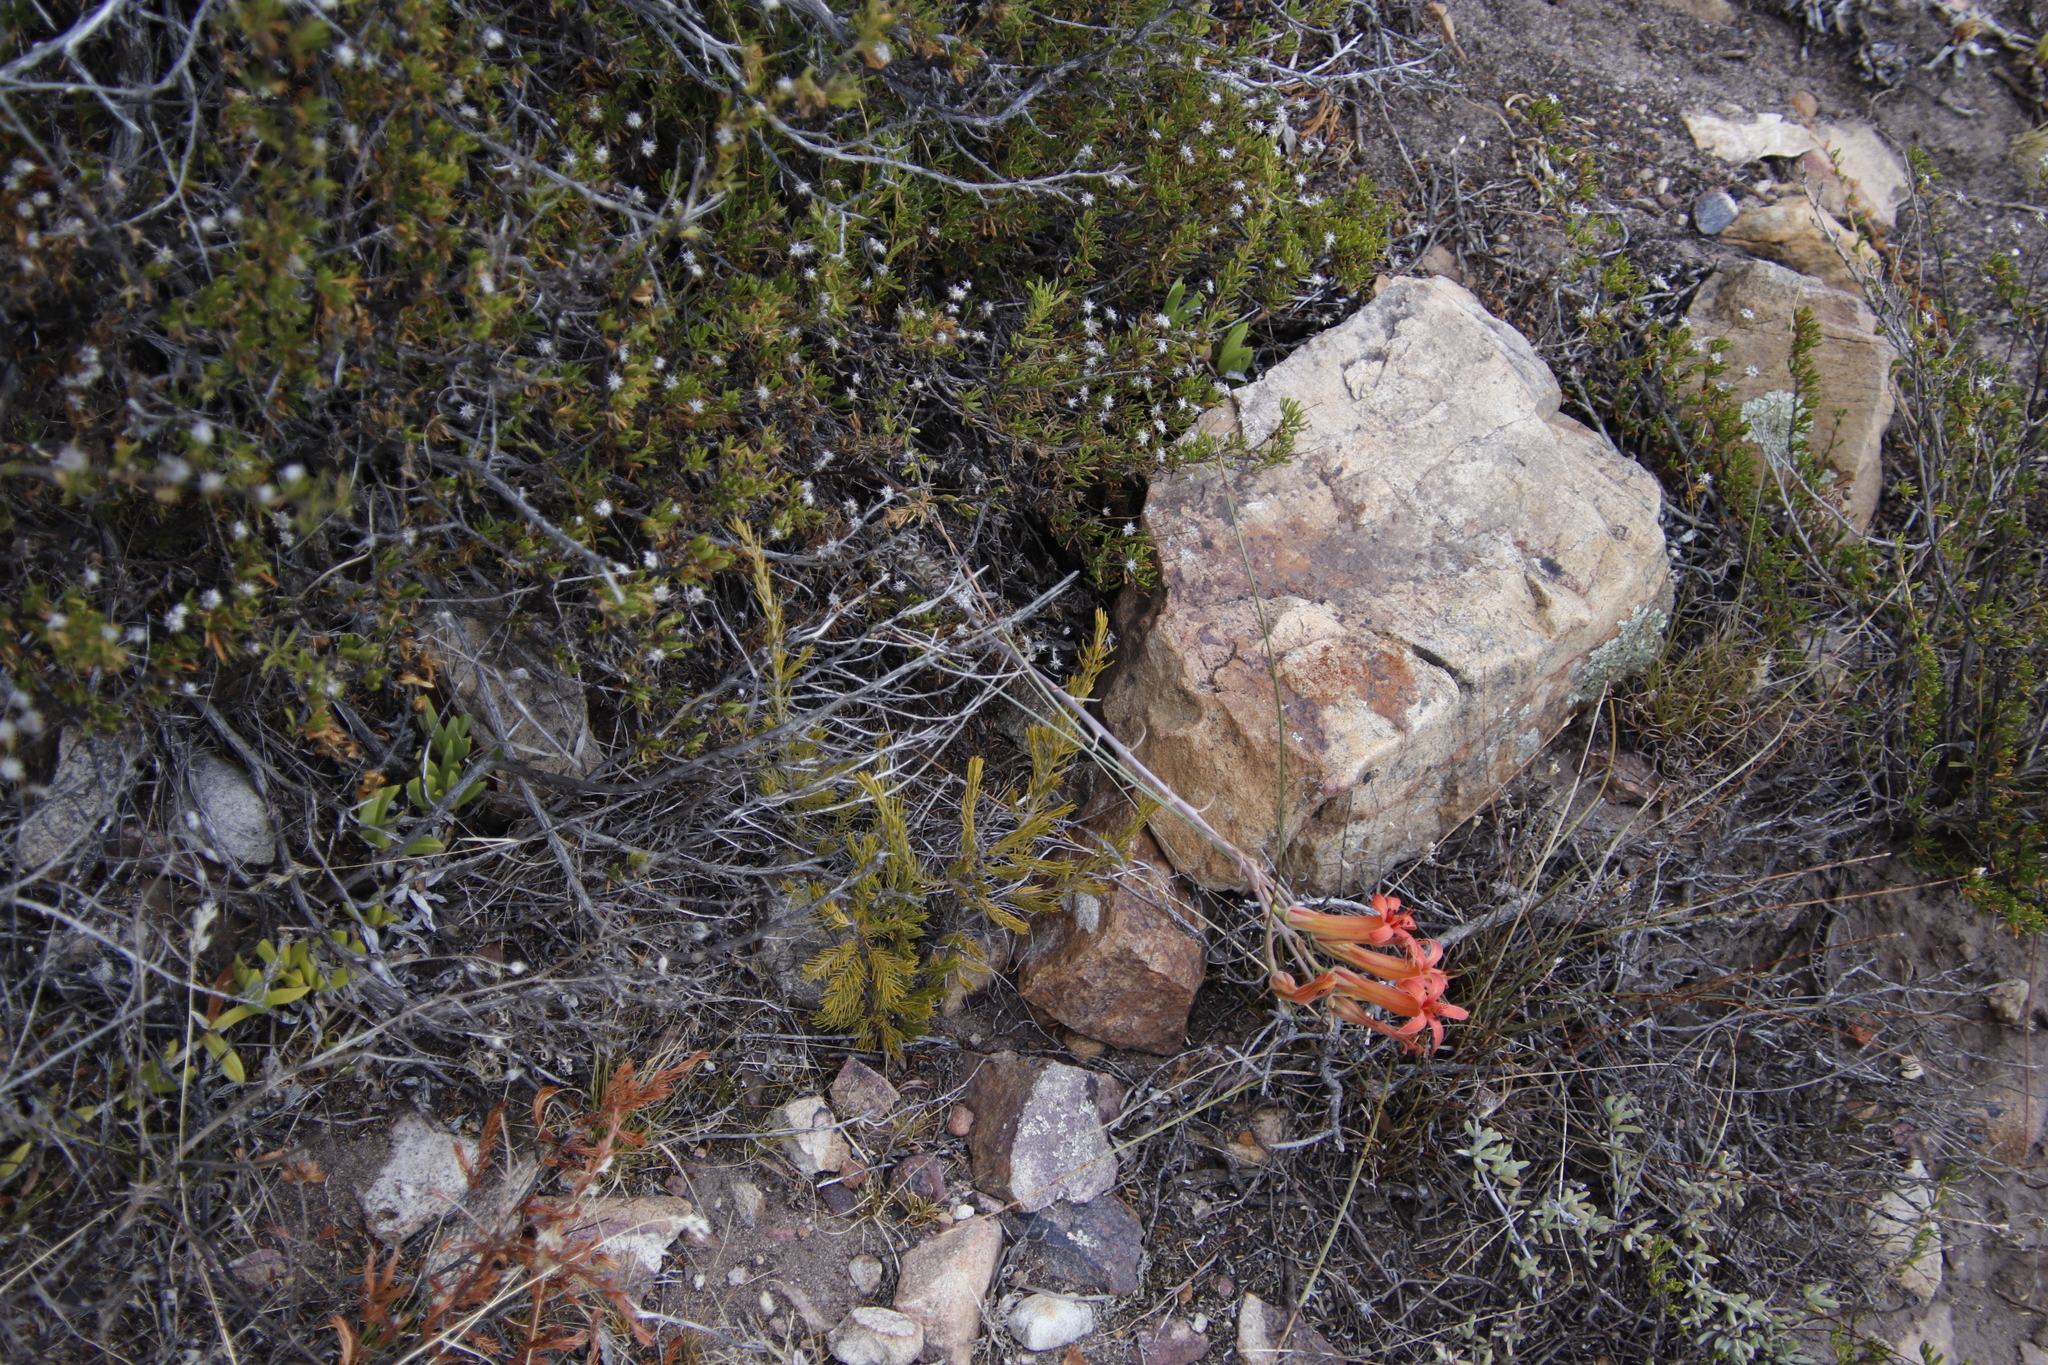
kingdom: Plantae
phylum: Tracheophyta
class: Magnoliopsida
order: Saxifragales
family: Crassulaceae
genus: Tylecodon
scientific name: Tylecodon grandiflorus
